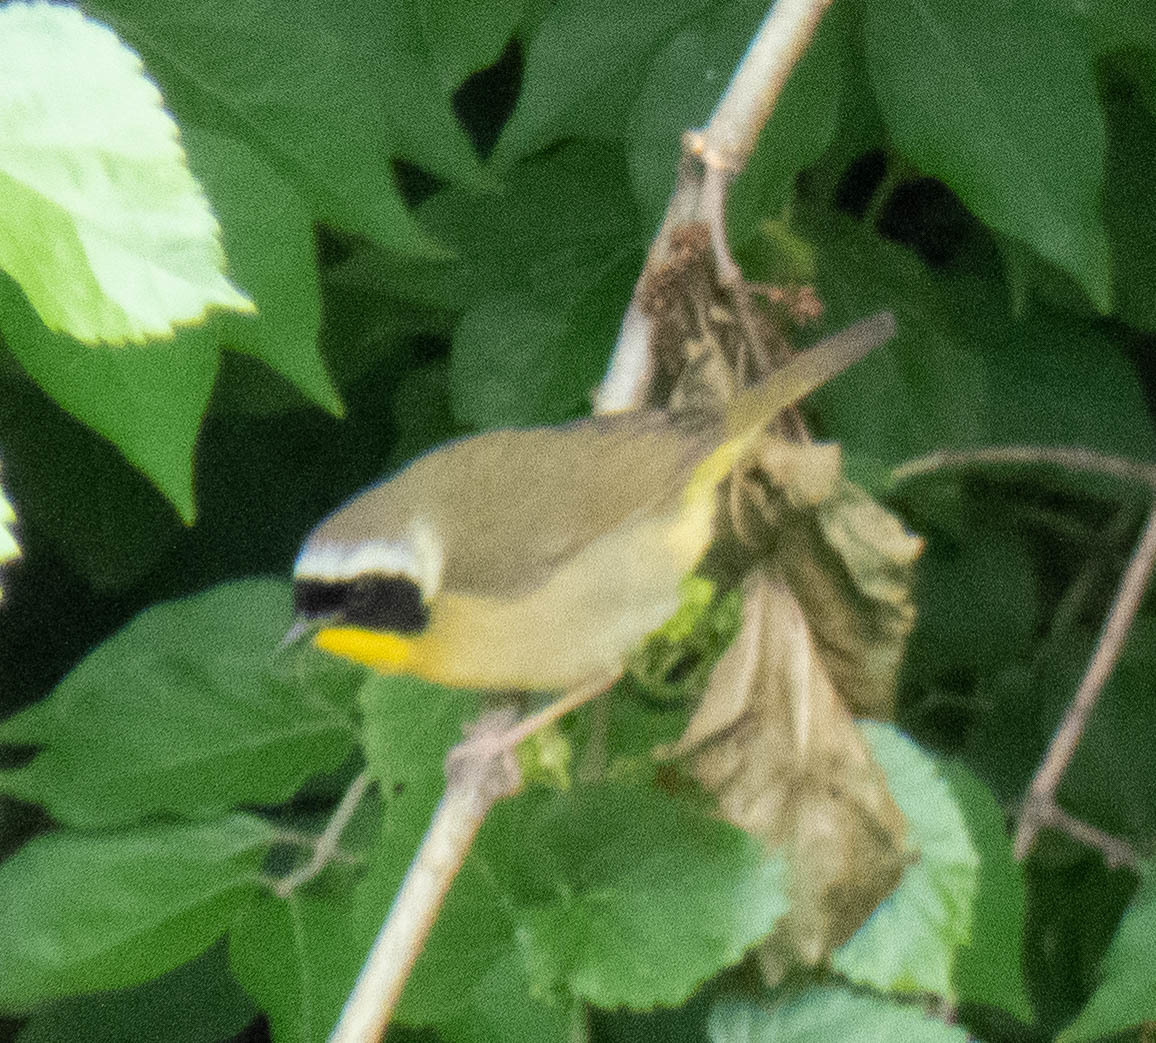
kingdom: Animalia
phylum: Chordata
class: Aves
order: Passeriformes
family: Parulidae
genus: Geothlypis
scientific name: Geothlypis trichas
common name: Common yellowthroat
